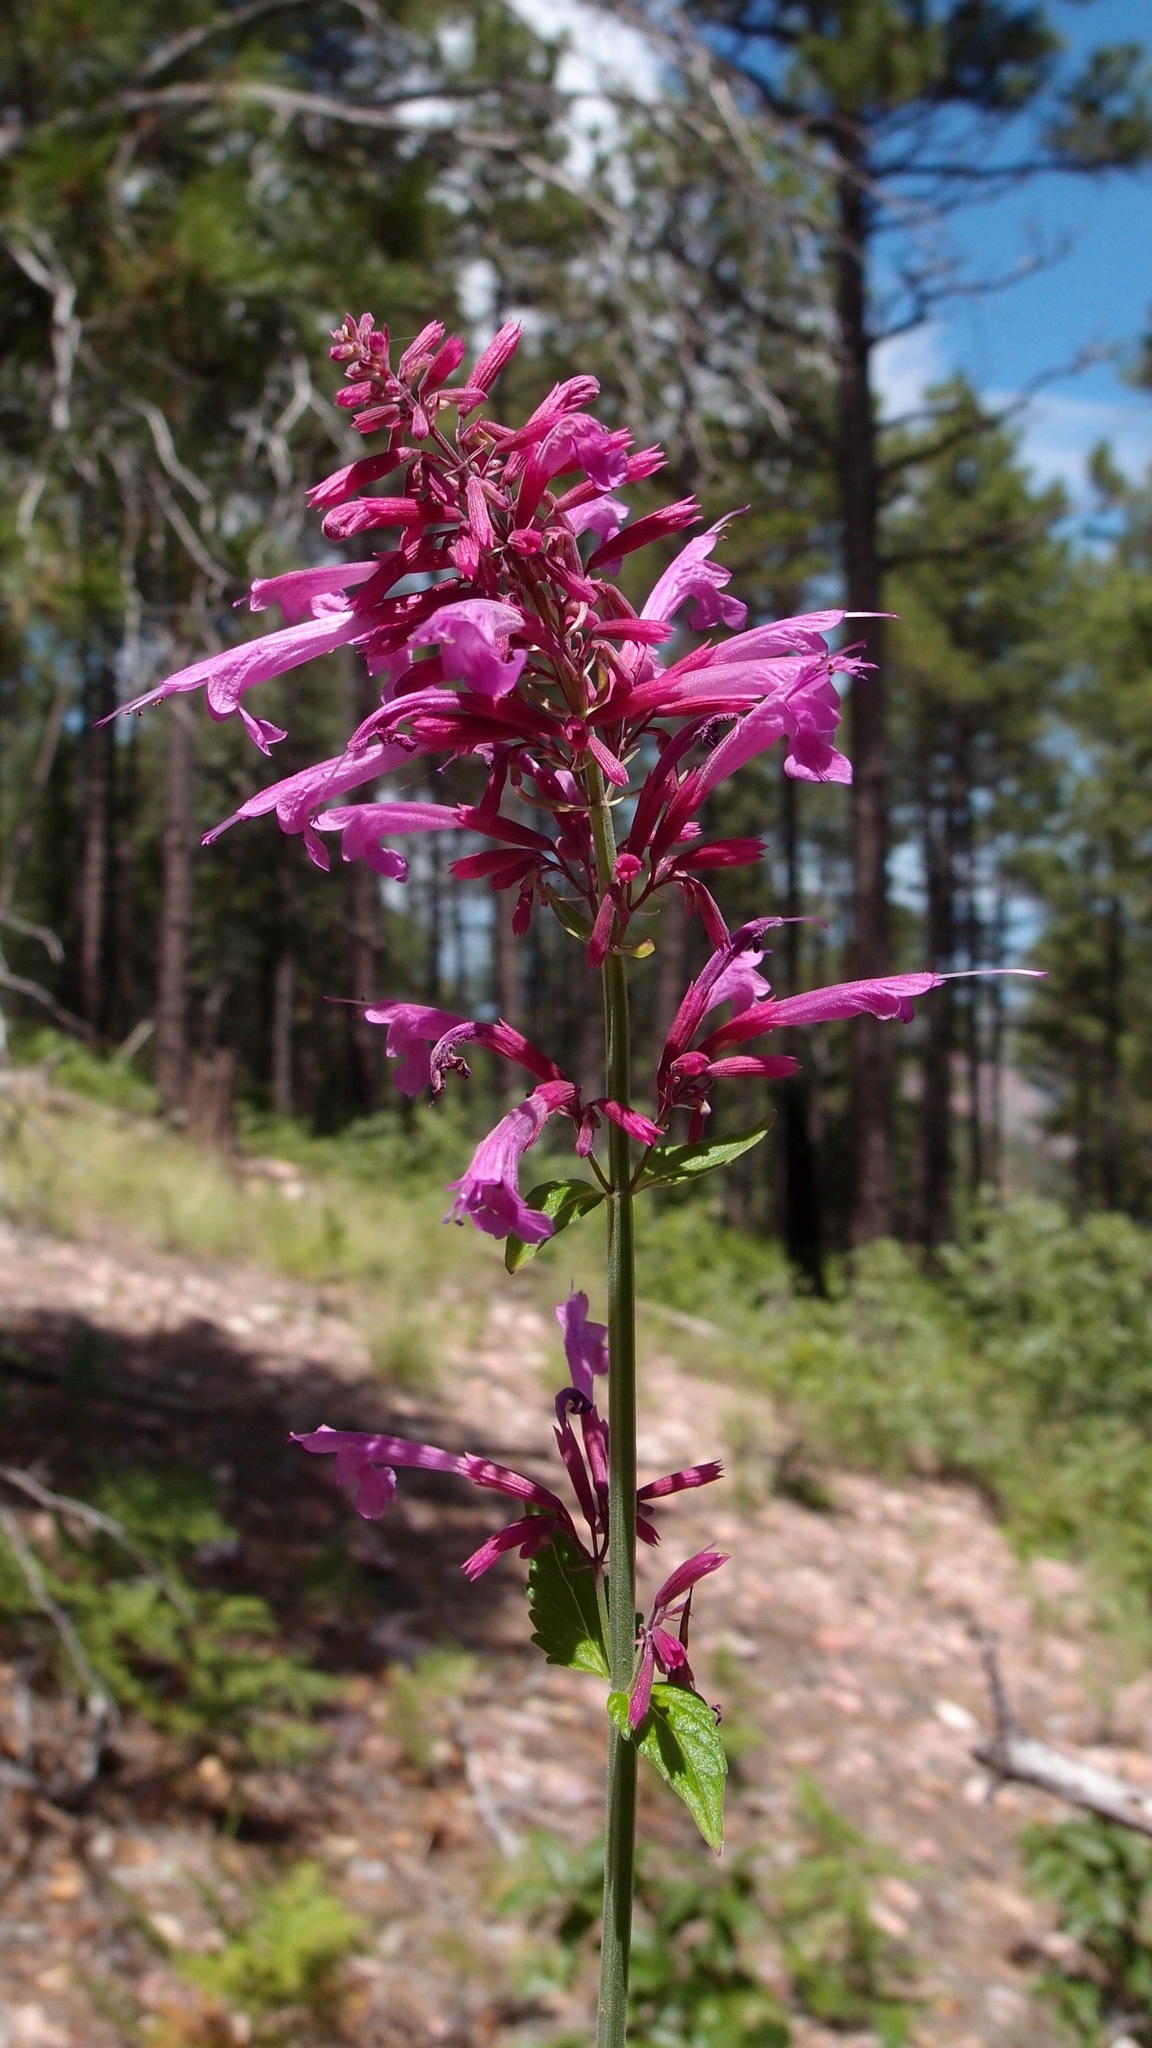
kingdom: Plantae
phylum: Tracheophyta
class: Magnoliopsida
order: Lamiales
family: Lamiaceae
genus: Agastache
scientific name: Agastache pallida
